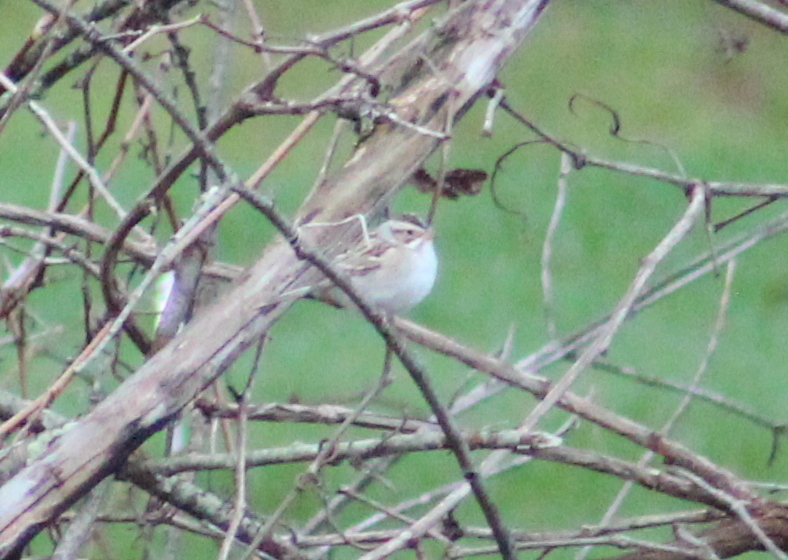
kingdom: Animalia
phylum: Chordata
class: Aves
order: Passeriformes
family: Passerellidae
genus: Spizella
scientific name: Spizella pallida
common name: Clay-colored sparrow
